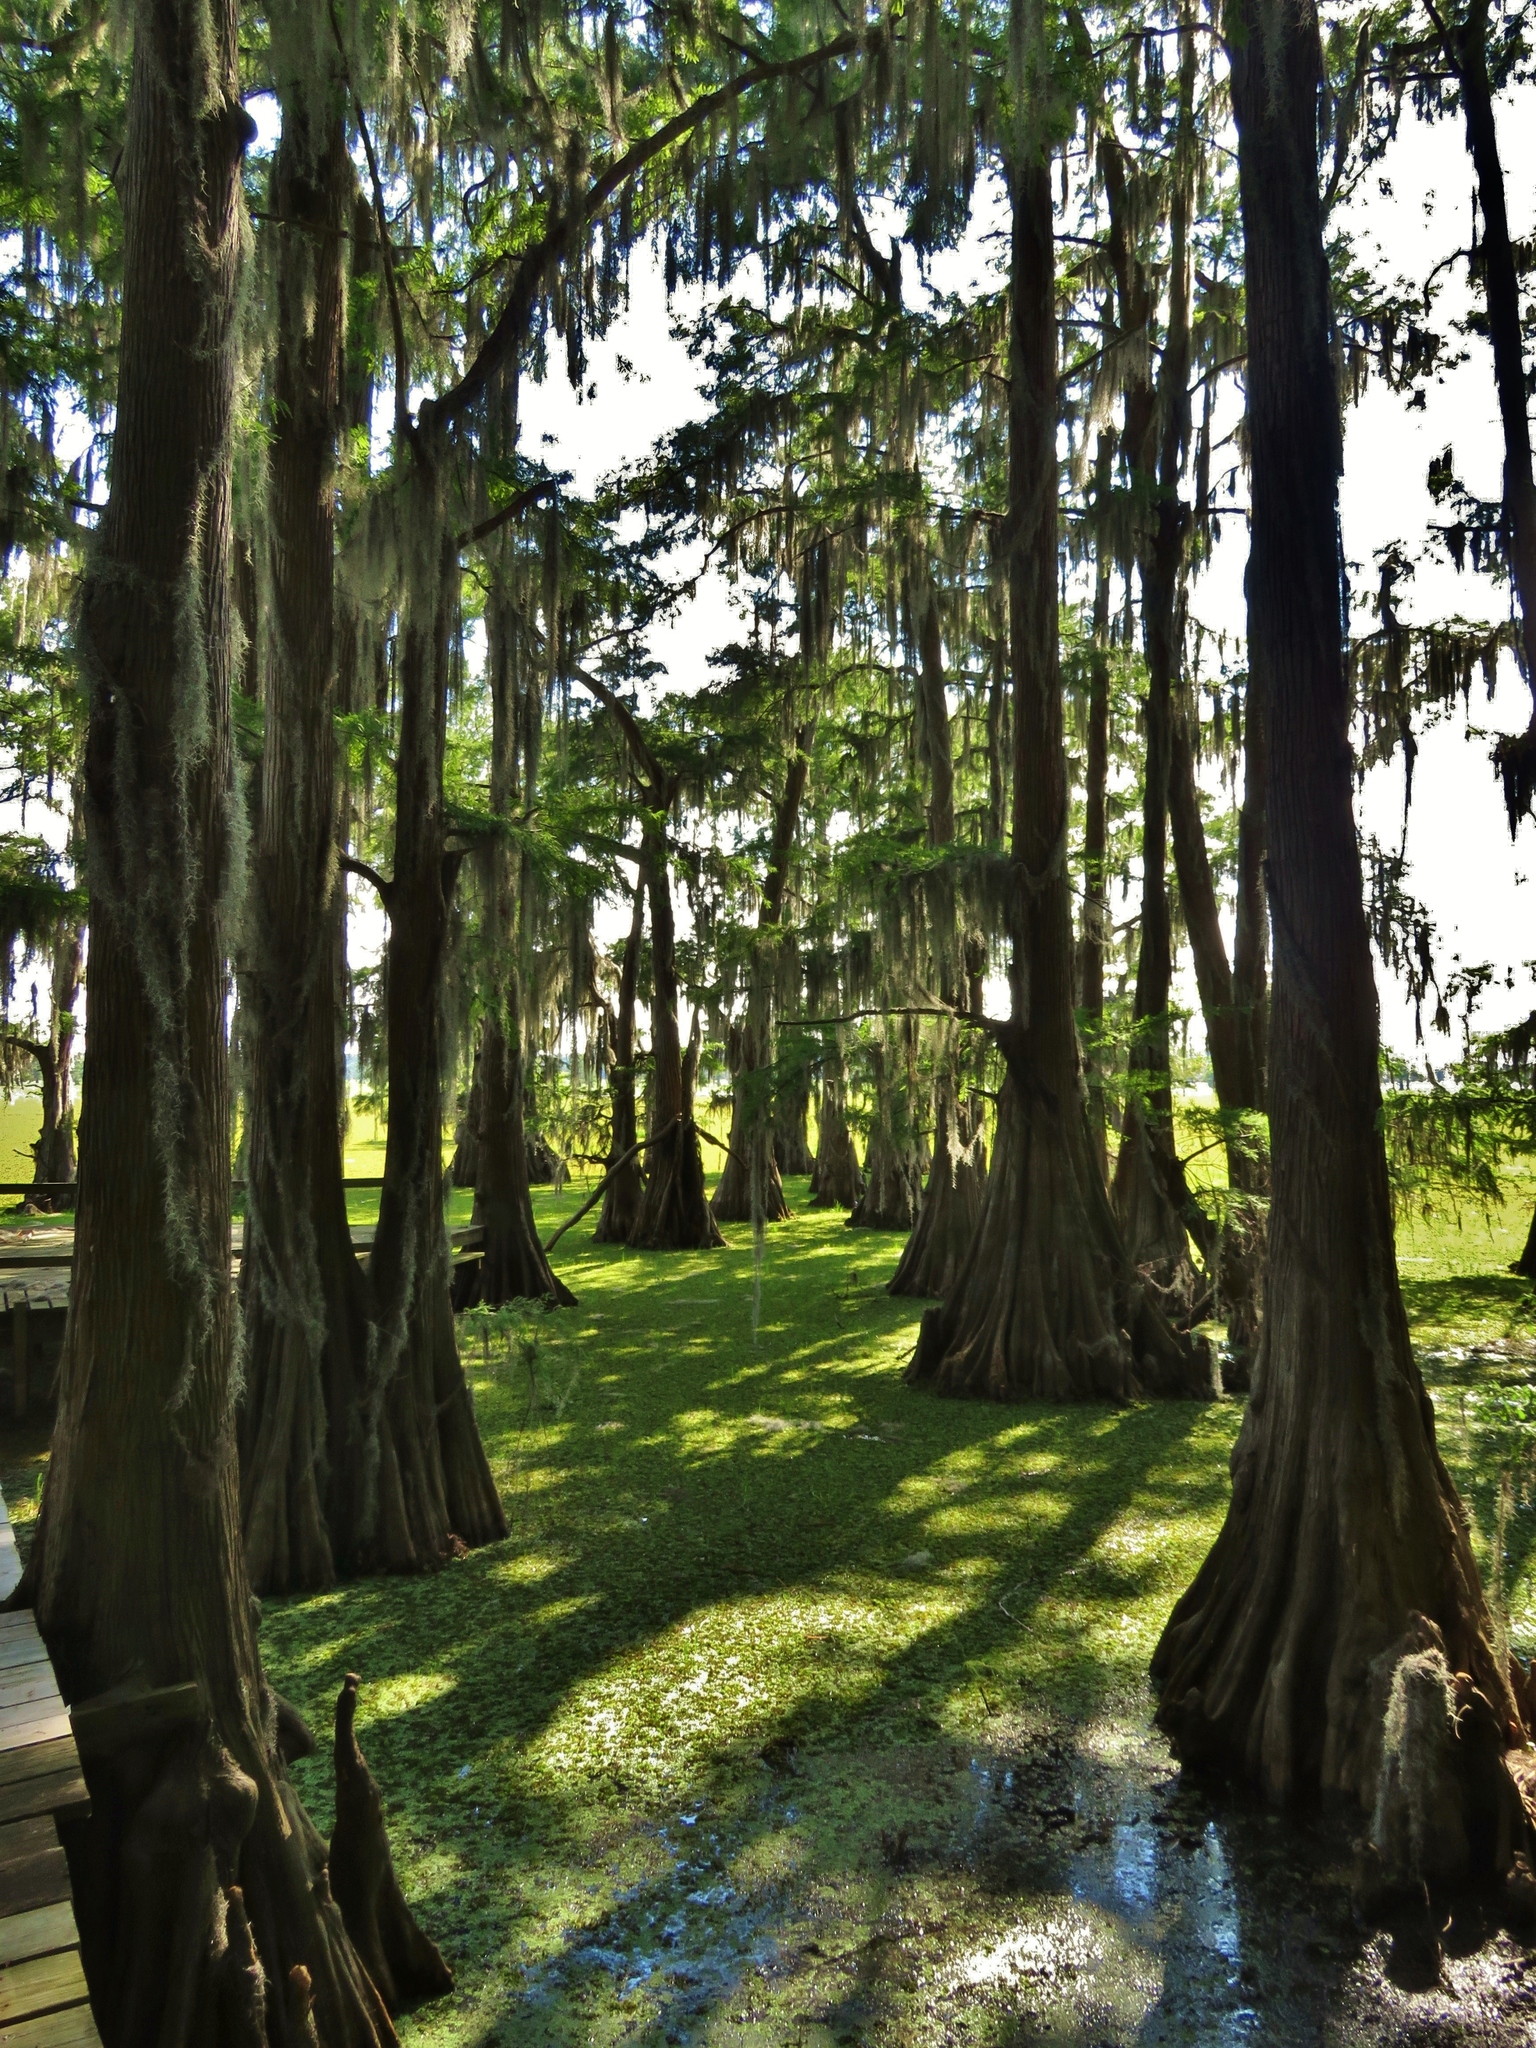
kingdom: Plantae
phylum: Tracheophyta
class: Pinopsida
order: Pinales
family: Cupressaceae
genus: Taxodium
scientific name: Taxodium distichum
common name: Bald cypress
